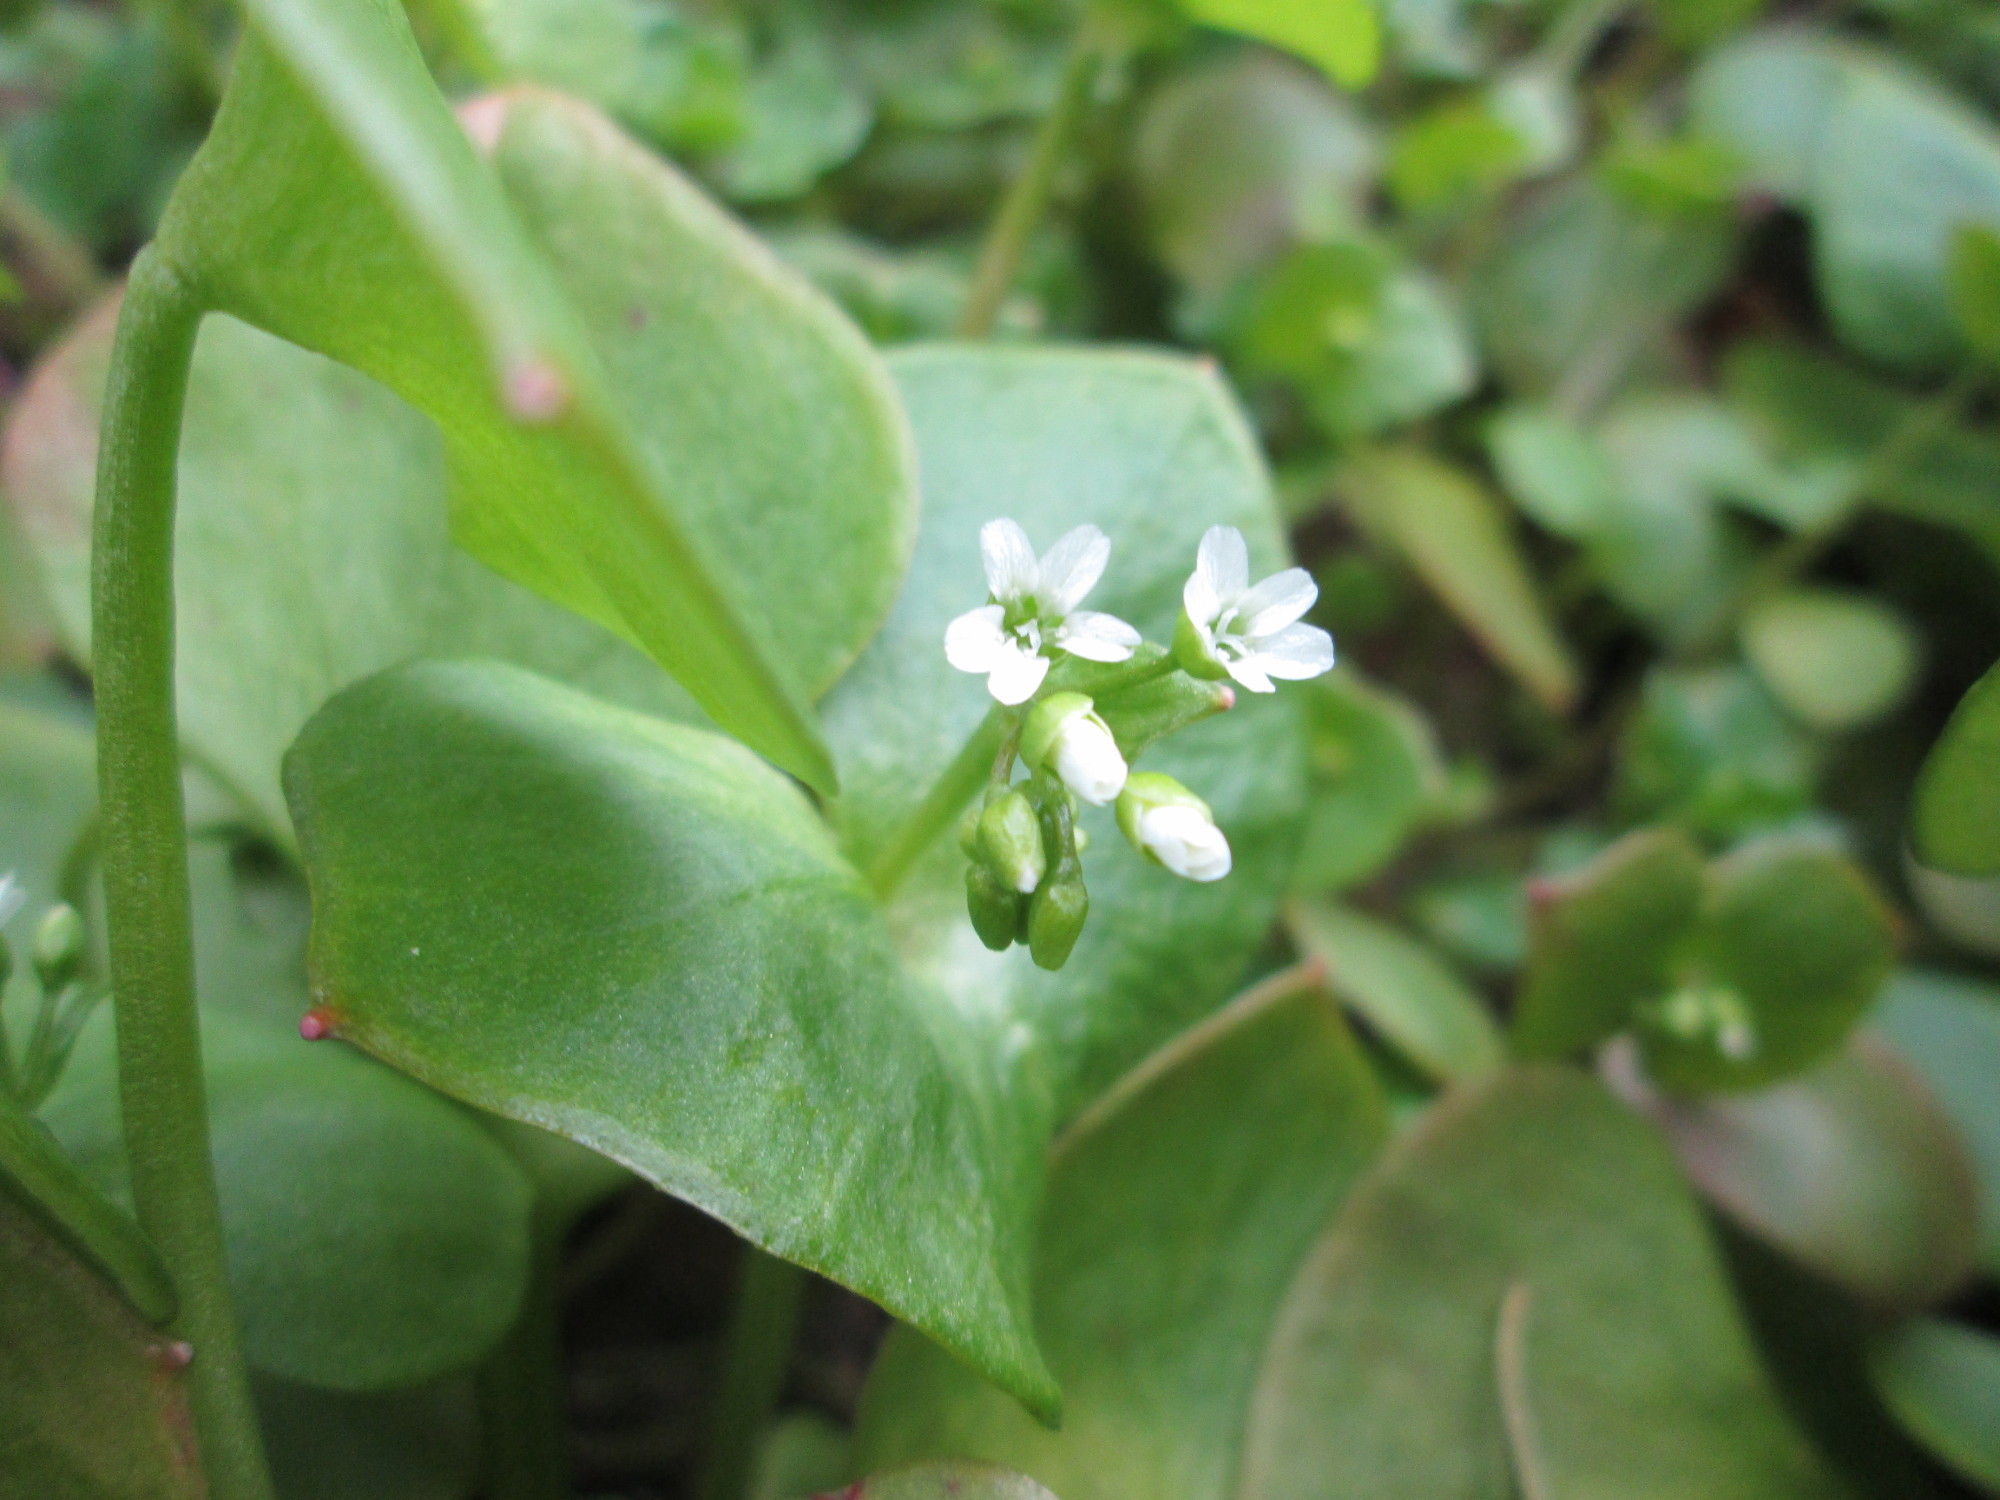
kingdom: Plantae
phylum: Tracheophyta
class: Magnoliopsida
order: Caryophyllales
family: Montiaceae
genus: Claytonia
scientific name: Claytonia perfoliata
